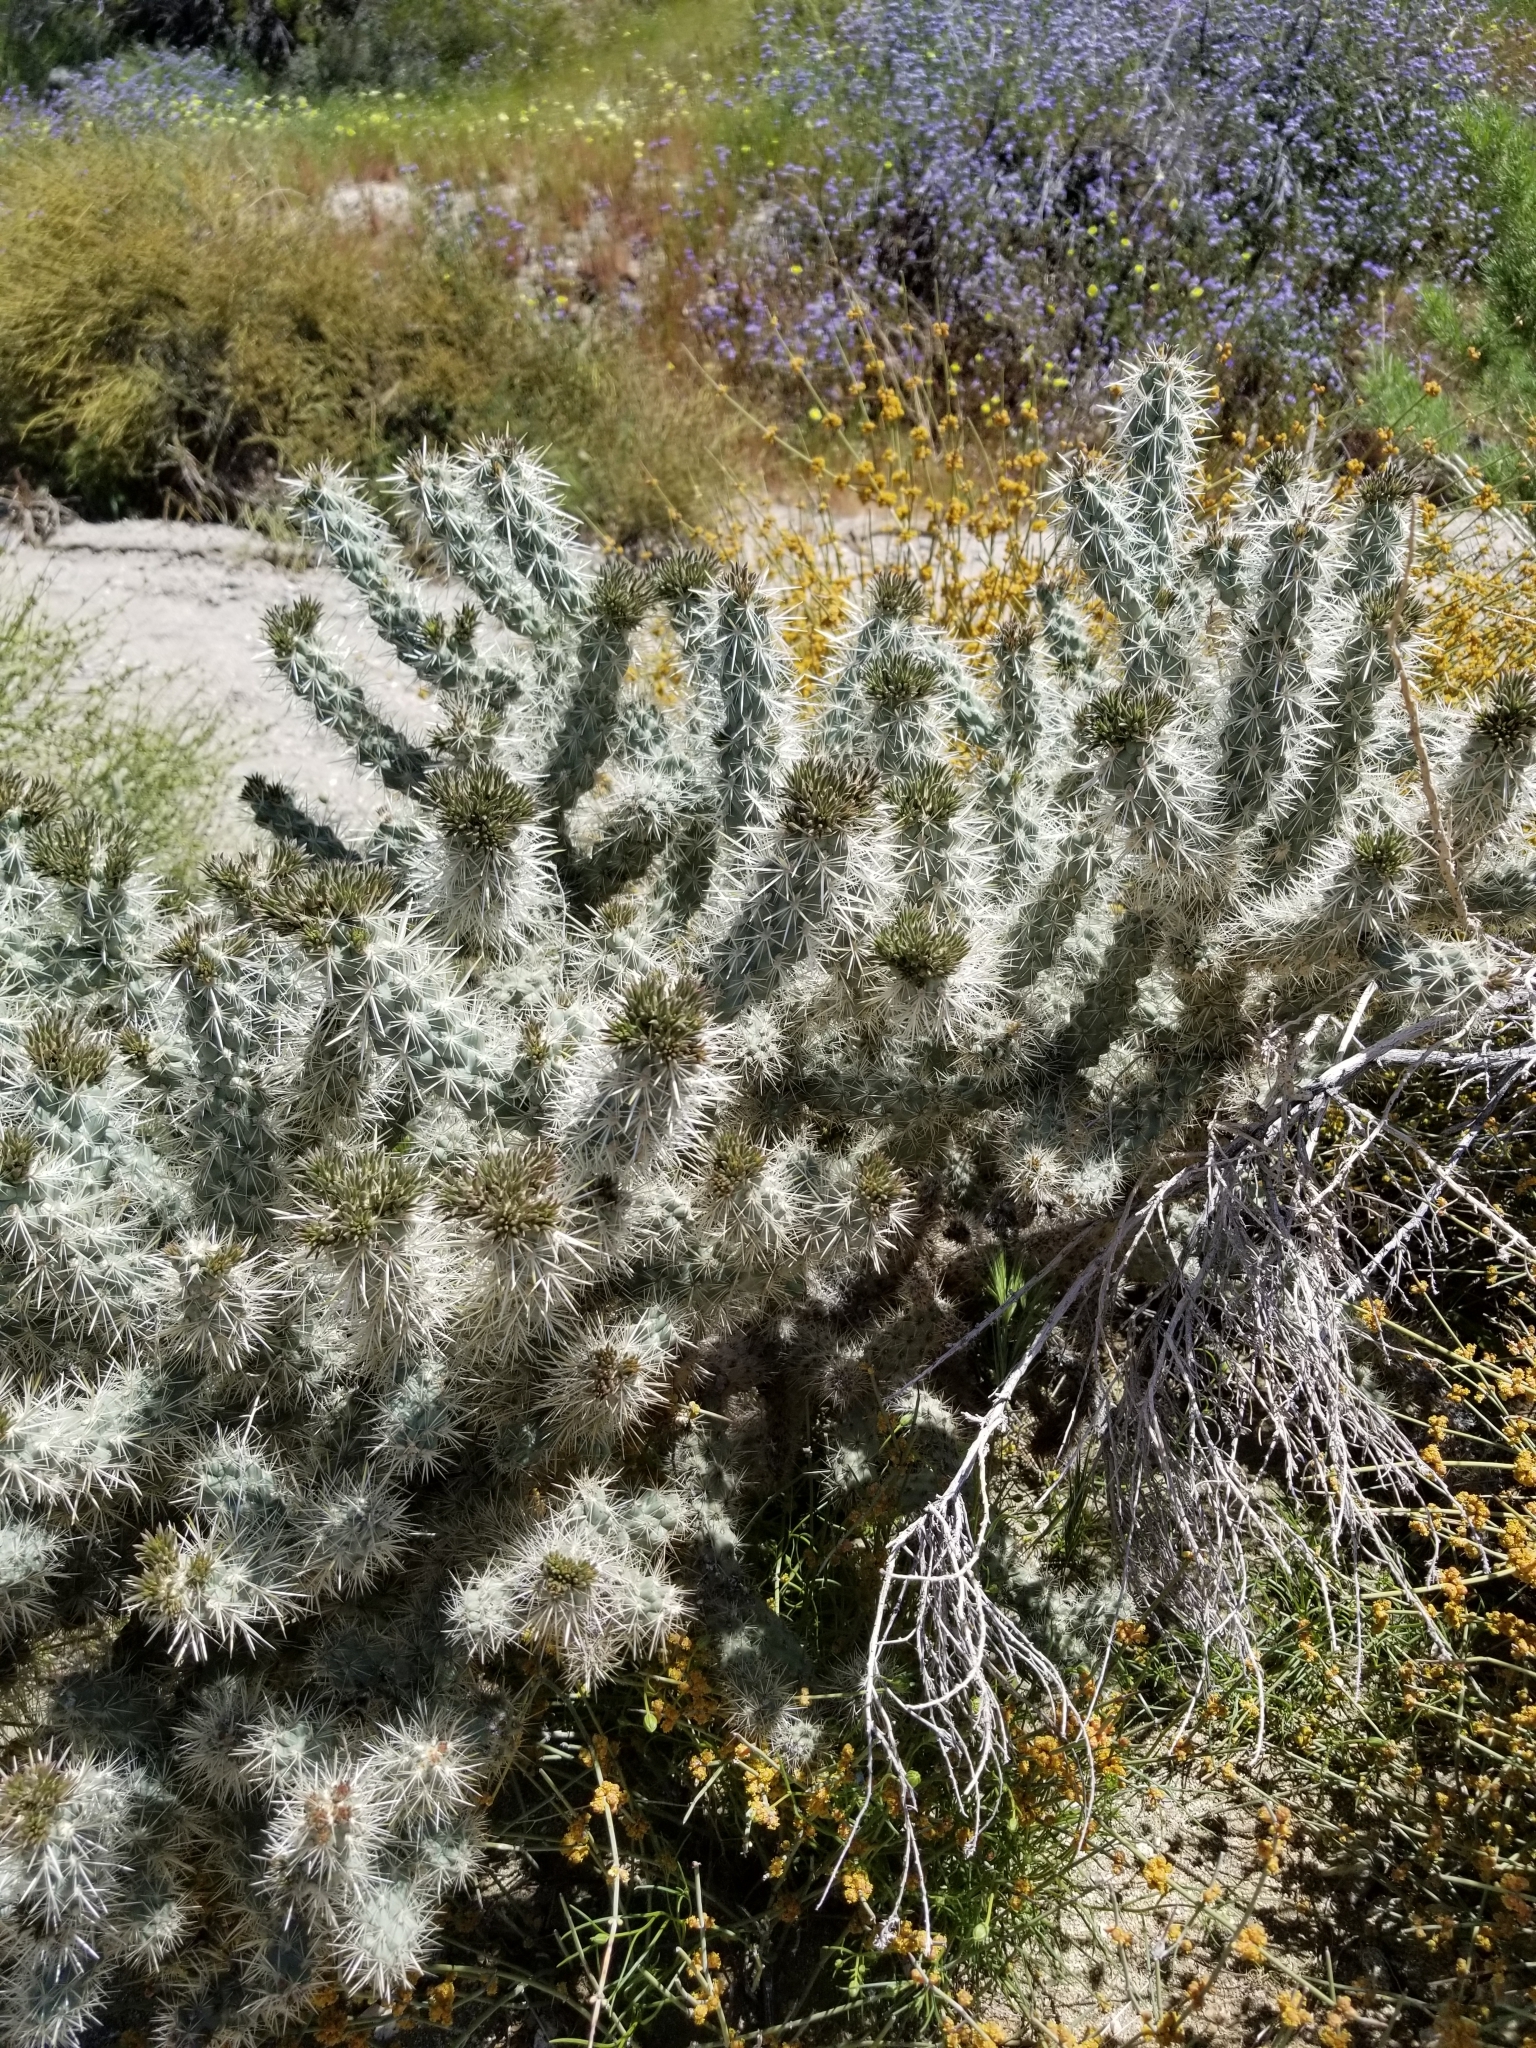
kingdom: Plantae
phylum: Tracheophyta
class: Magnoliopsida
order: Caryophyllales
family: Cactaceae
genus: Cylindropuntia
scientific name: Cylindropuntia echinocarpa
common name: Ground cholla
